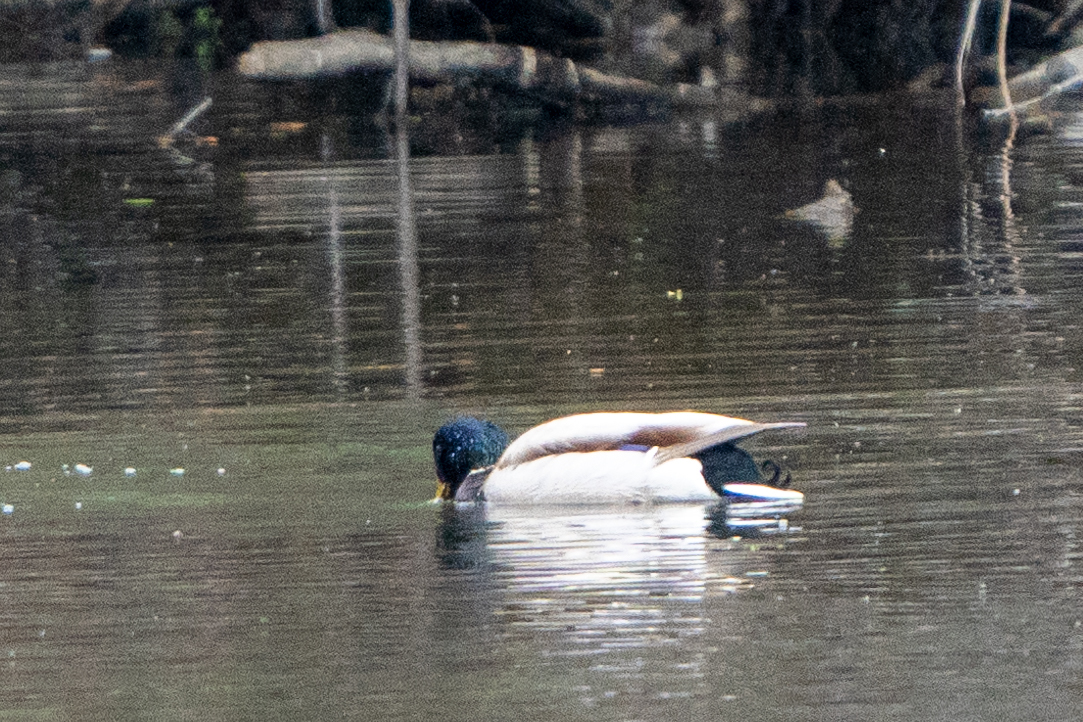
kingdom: Animalia
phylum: Chordata
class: Aves
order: Anseriformes
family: Anatidae
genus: Anas
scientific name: Anas platyrhynchos
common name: Mallard
